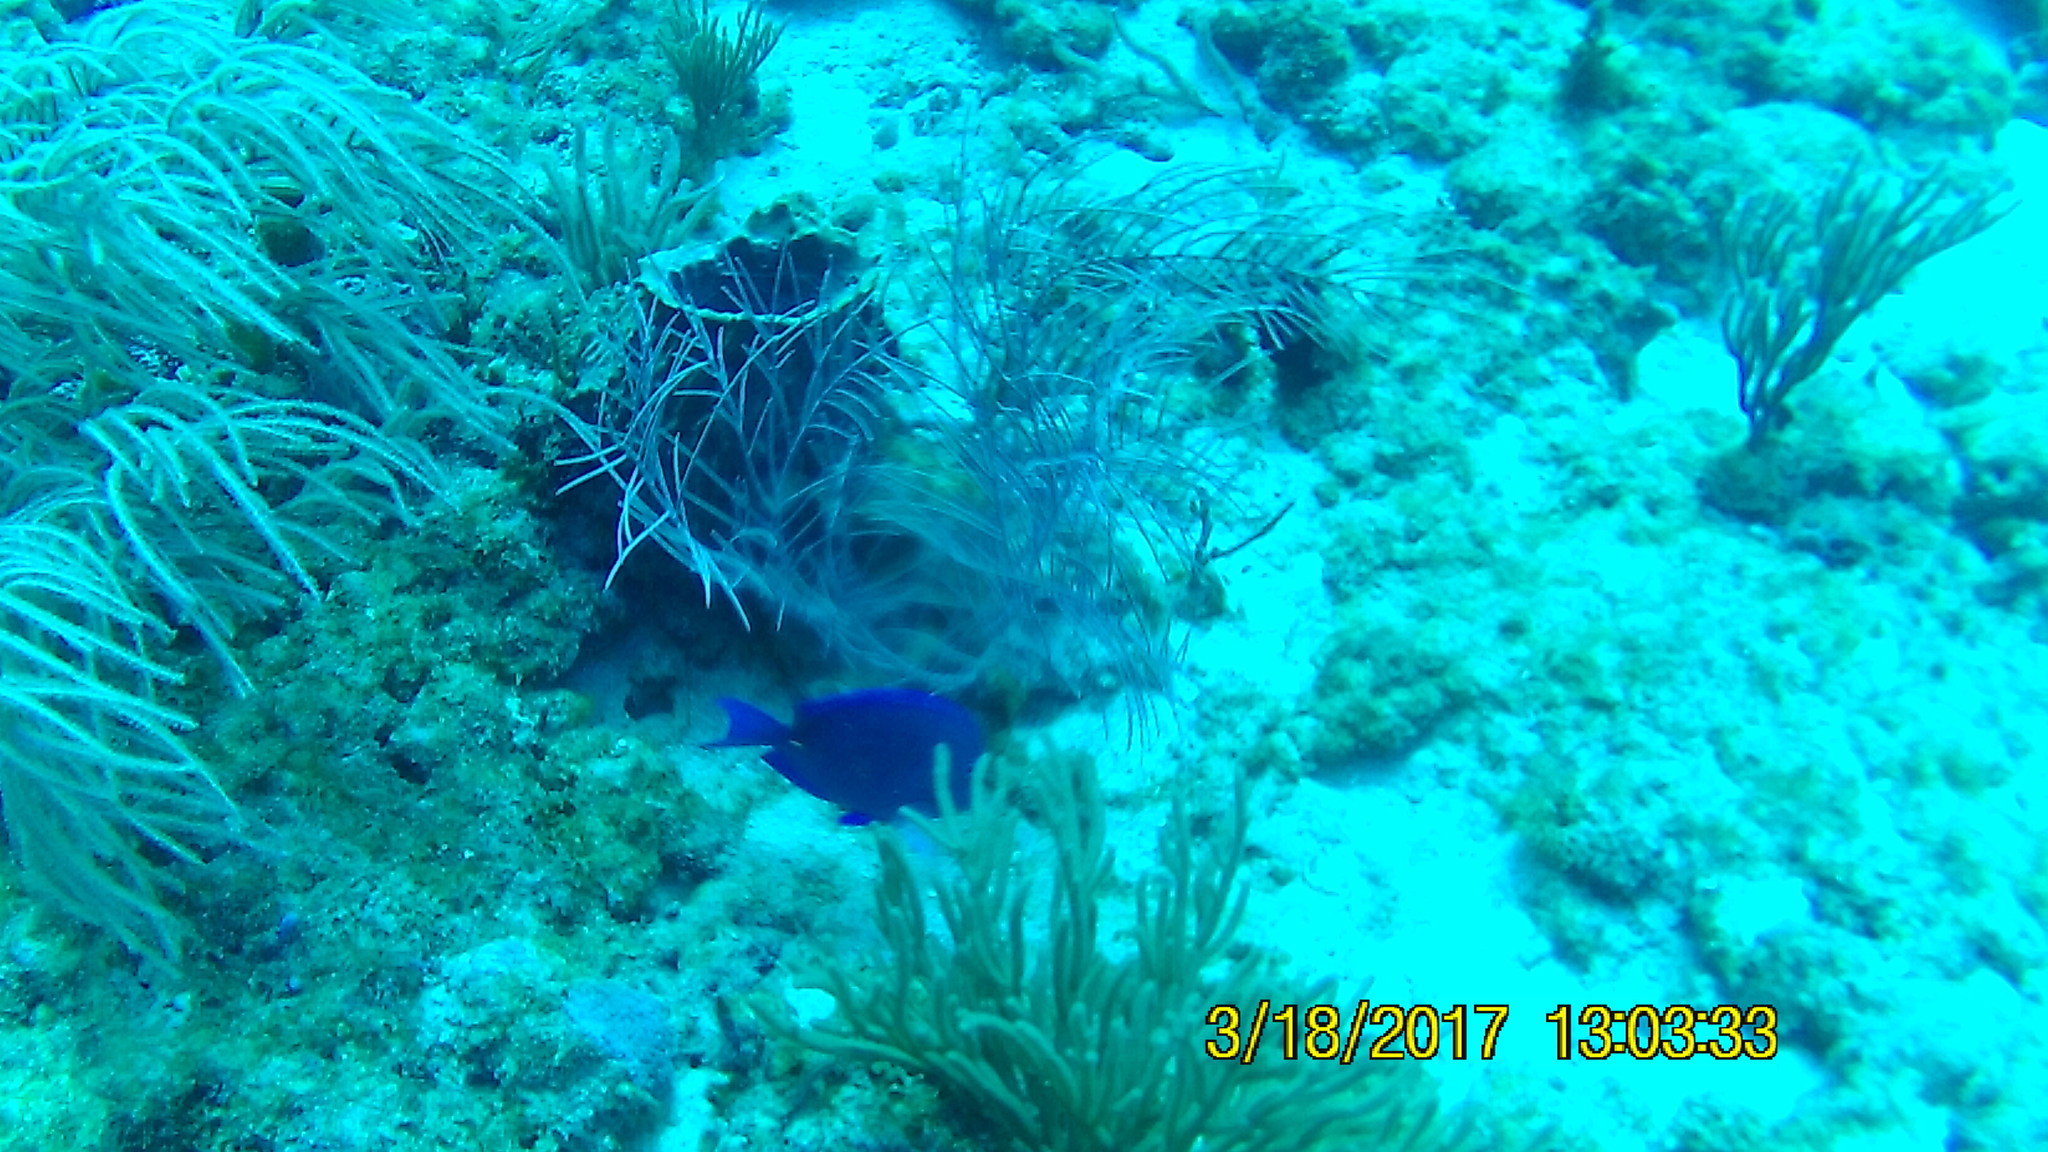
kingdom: Animalia
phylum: Chordata
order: Perciformes
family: Acanthuridae
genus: Acanthurus
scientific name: Acanthurus coeruleus
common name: Blue tang
